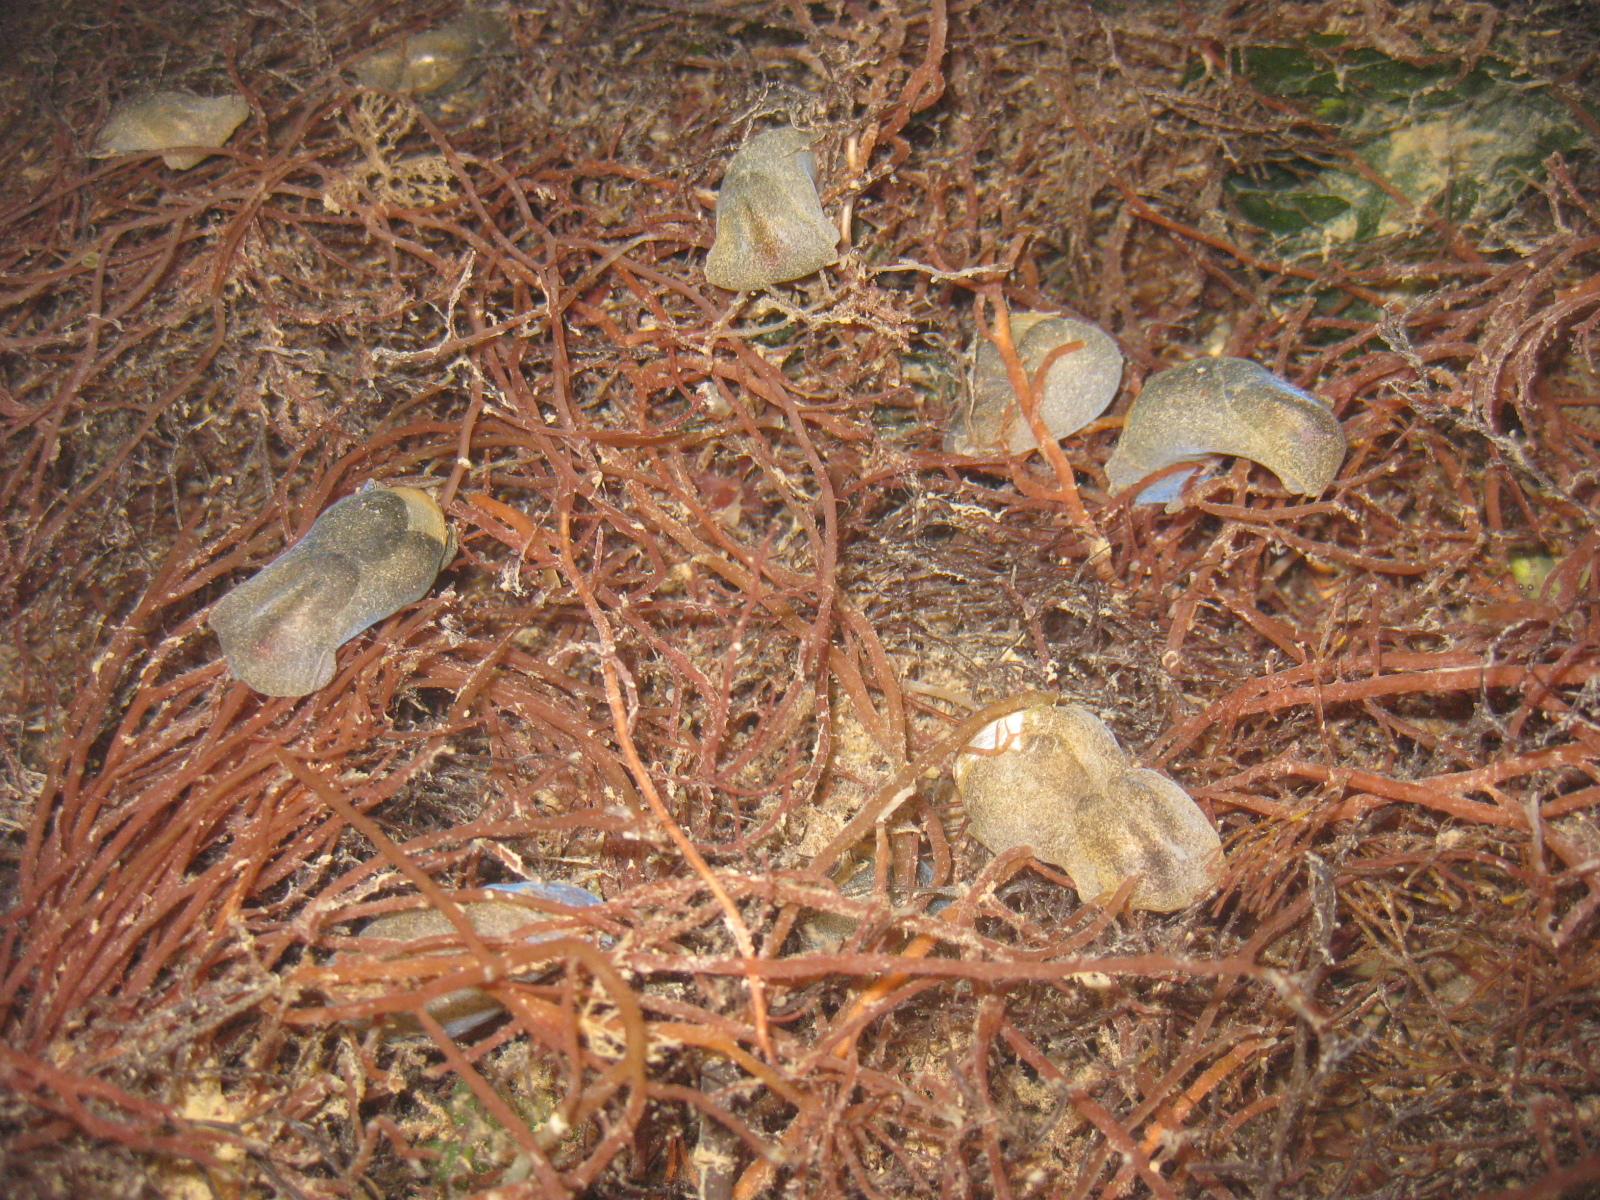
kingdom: Animalia
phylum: Mollusca
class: Gastropoda
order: Cephalaspidea
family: Haminoeidae
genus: Papawera
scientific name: Papawera zelandiae
